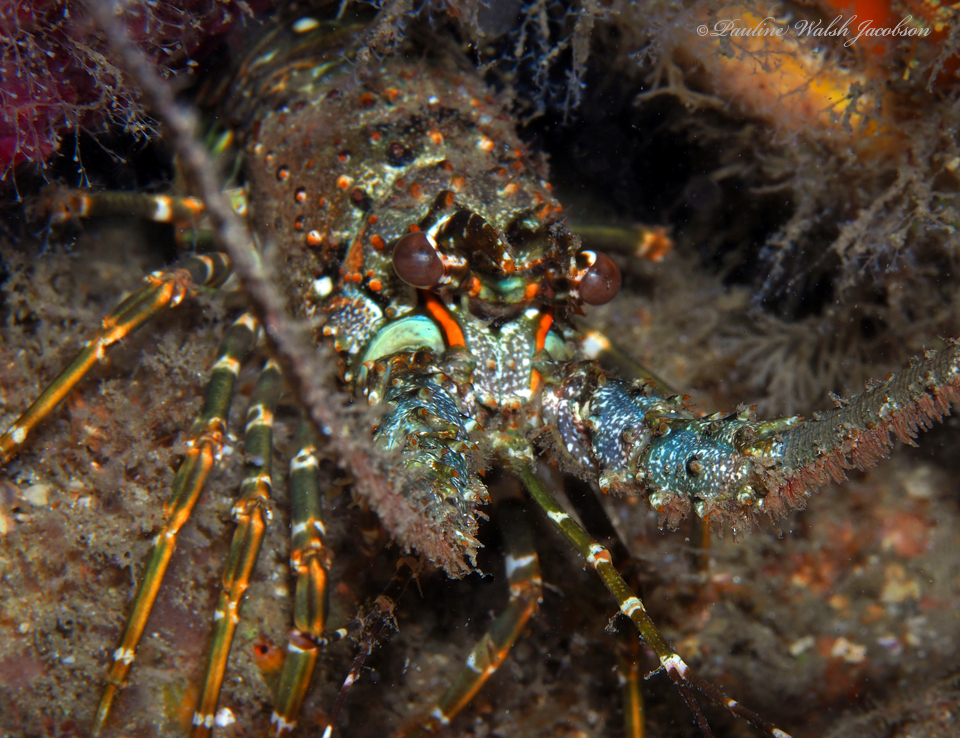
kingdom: Animalia
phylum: Arthropoda
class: Malacostraca
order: Decapoda
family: Palinuridae
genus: Panulirus
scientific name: Panulirus argus
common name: Caribbean spiny lobster
